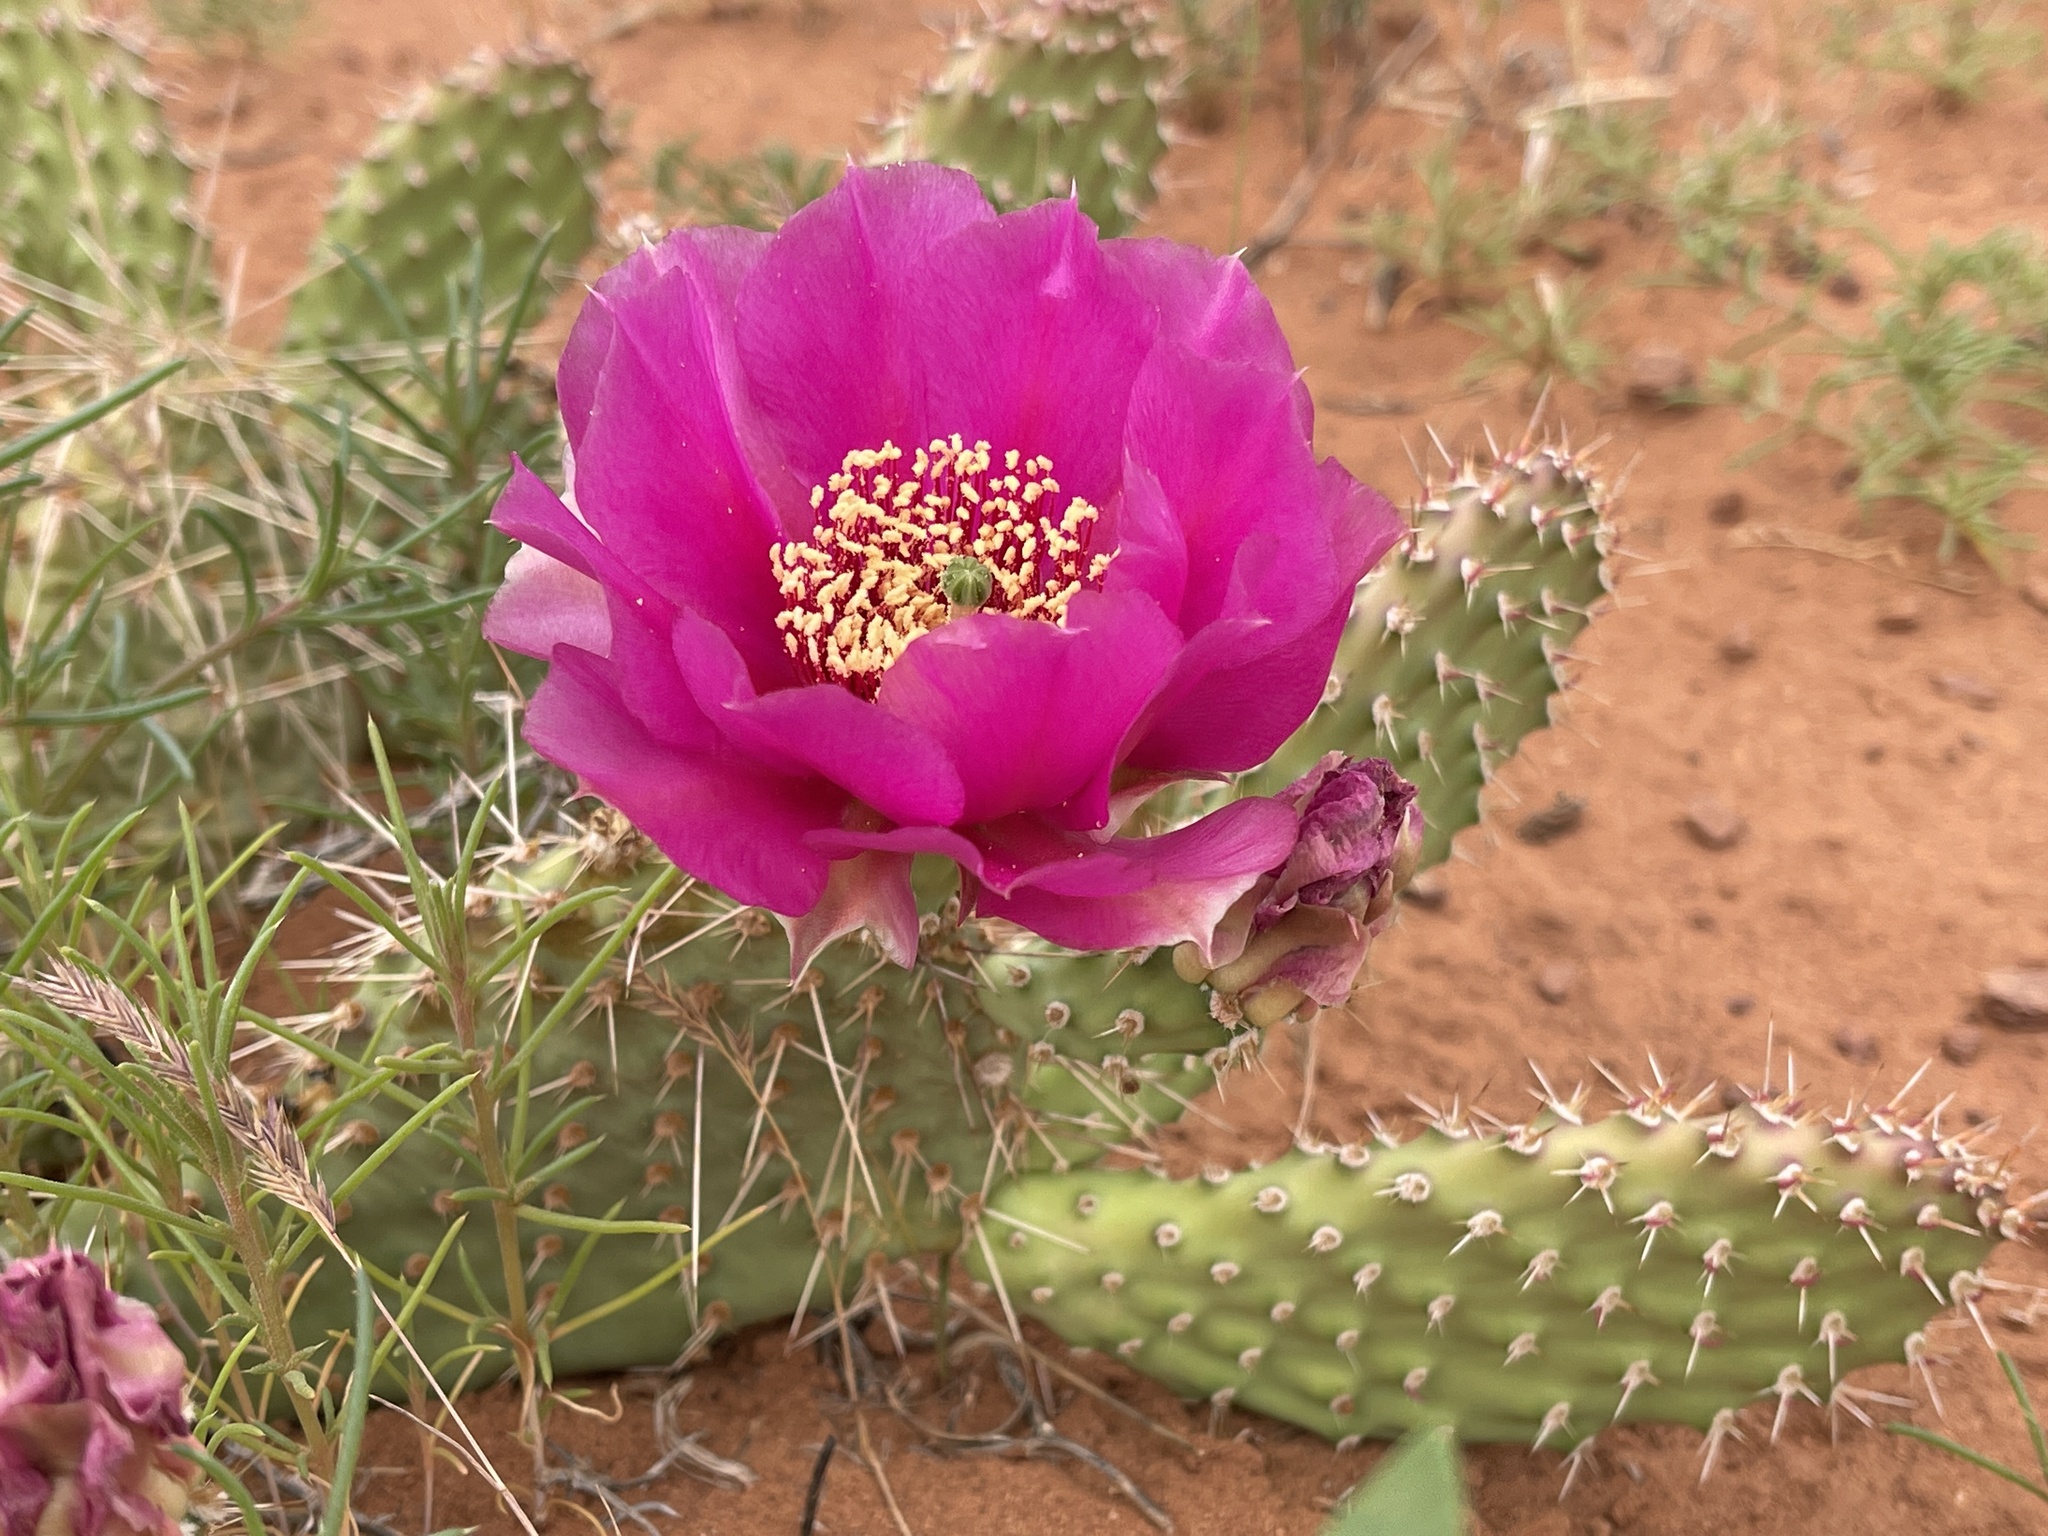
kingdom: Plantae
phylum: Tracheophyta
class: Magnoliopsida
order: Caryophyllales
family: Cactaceae
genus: Opuntia
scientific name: Opuntia polyacantha
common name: Plains prickly-pear
